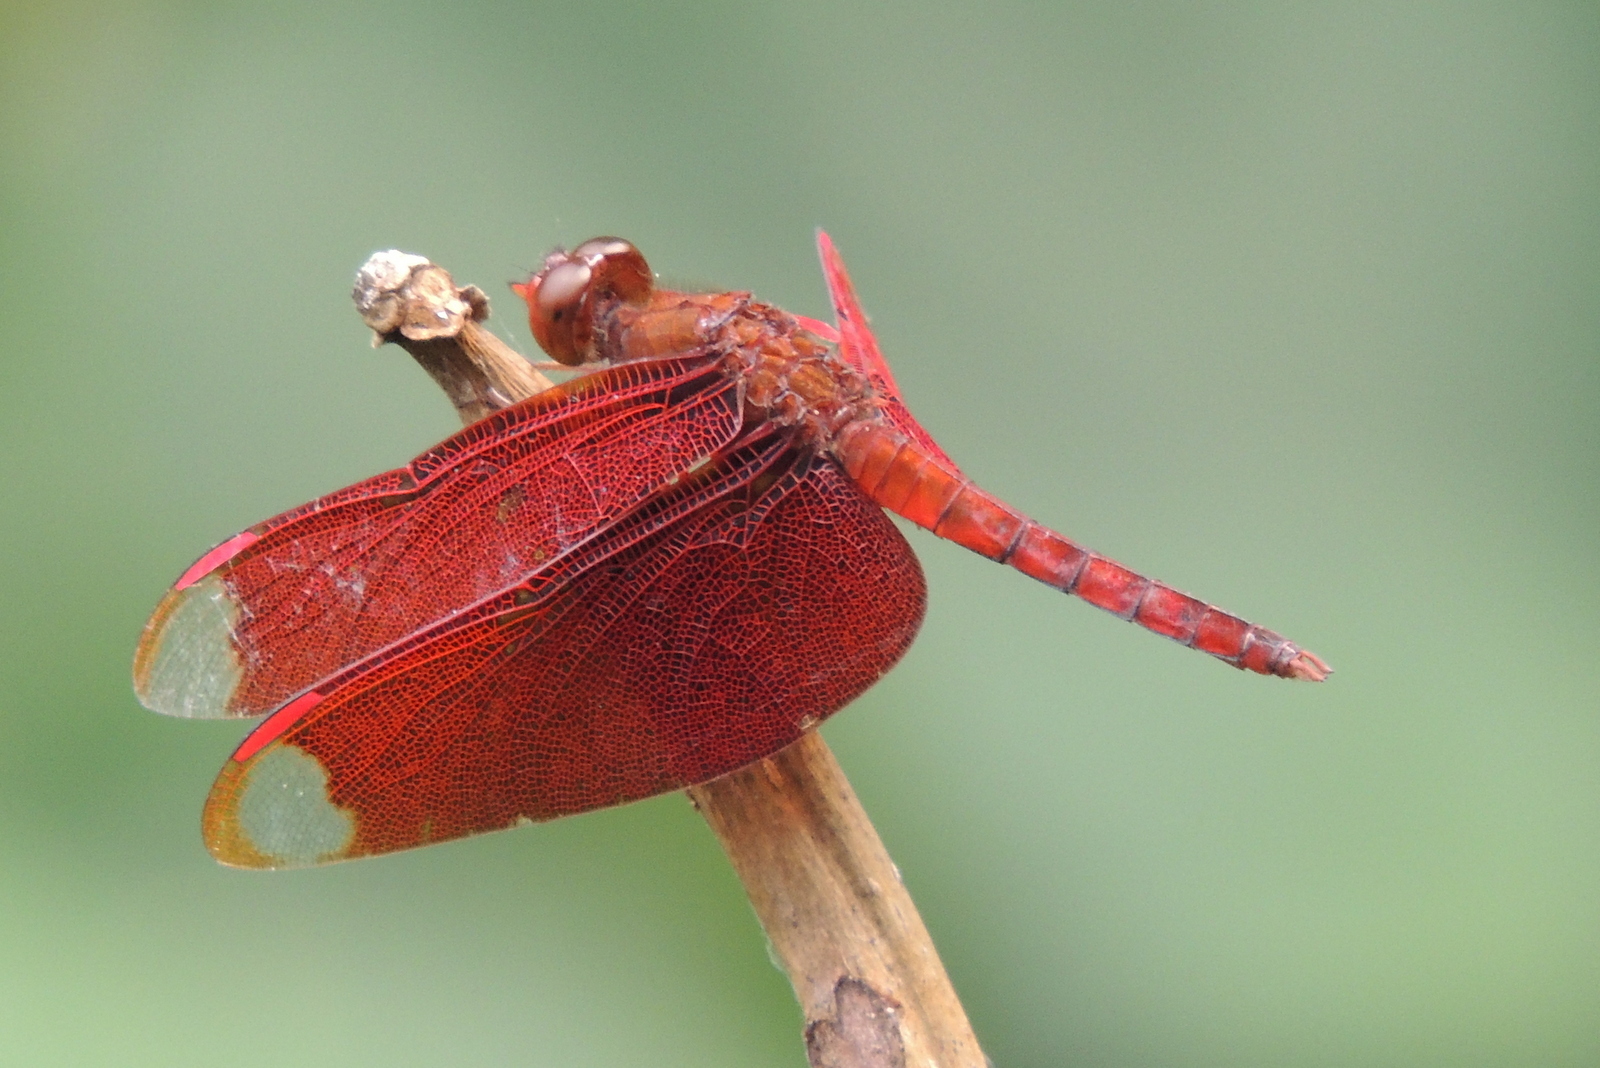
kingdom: Animalia
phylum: Arthropoda
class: Insecta
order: Odonata
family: Libellulidae
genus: Neurothemis
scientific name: Neurothemis fulvia
